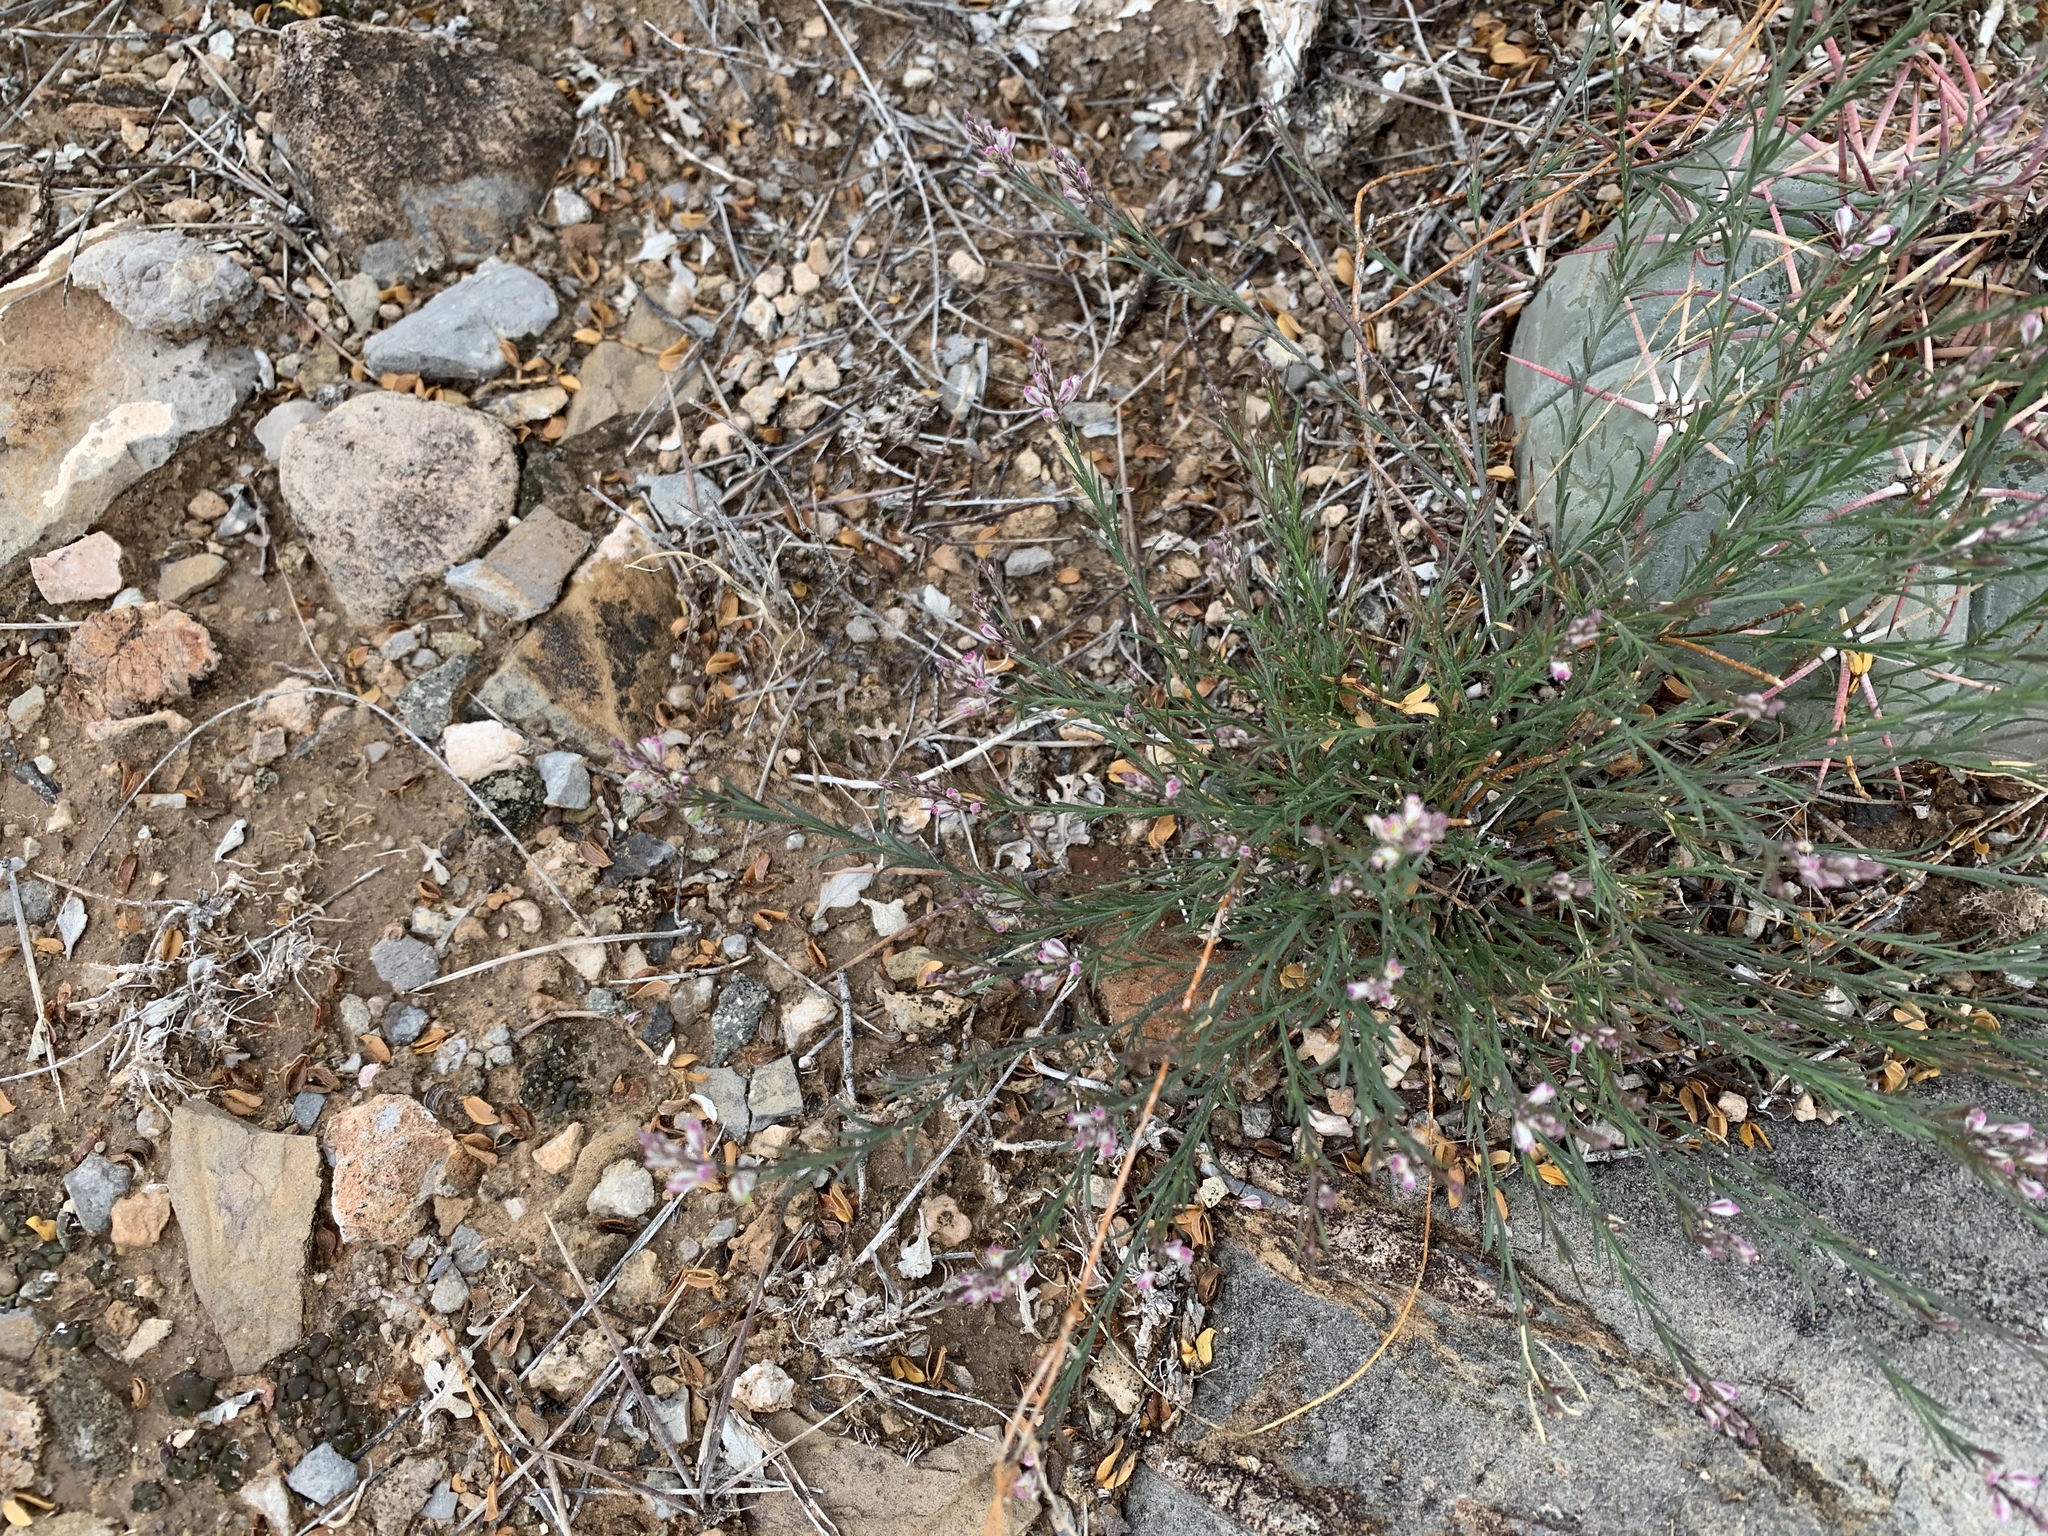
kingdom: Plantae
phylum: Tracheophyta
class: Magnoliopsida
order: Fabales
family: Polygalaceae
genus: Polygala
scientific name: Polygala scoparioides
